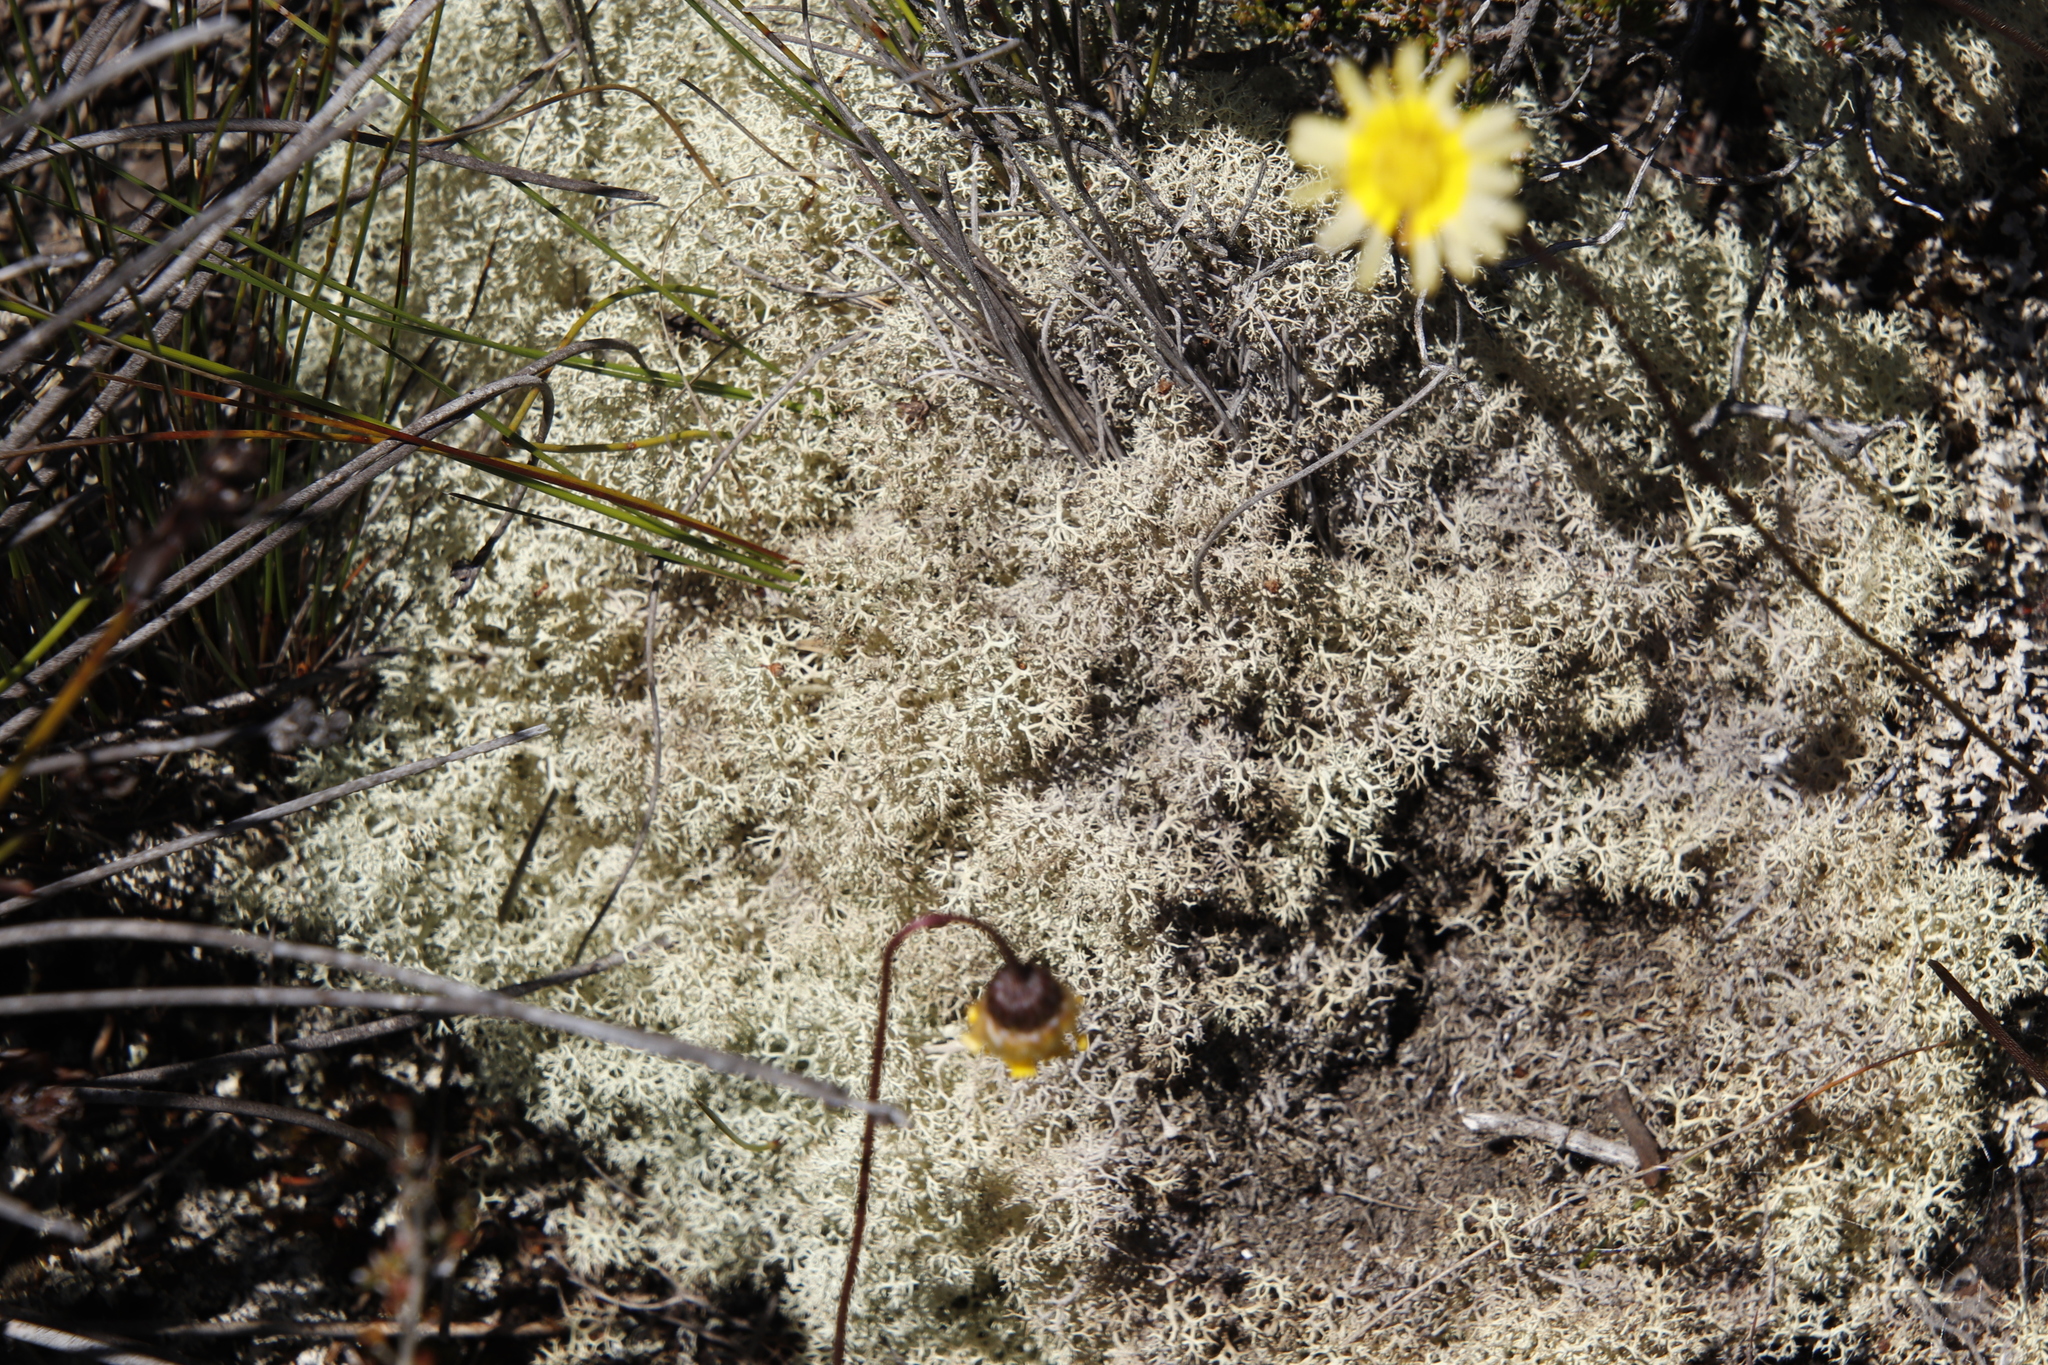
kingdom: Fungi
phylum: Ascomycota
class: Lecanoromycetes
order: Lecanorales
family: Cladoniaceae
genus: Cladonia
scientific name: Cladonia confusa
